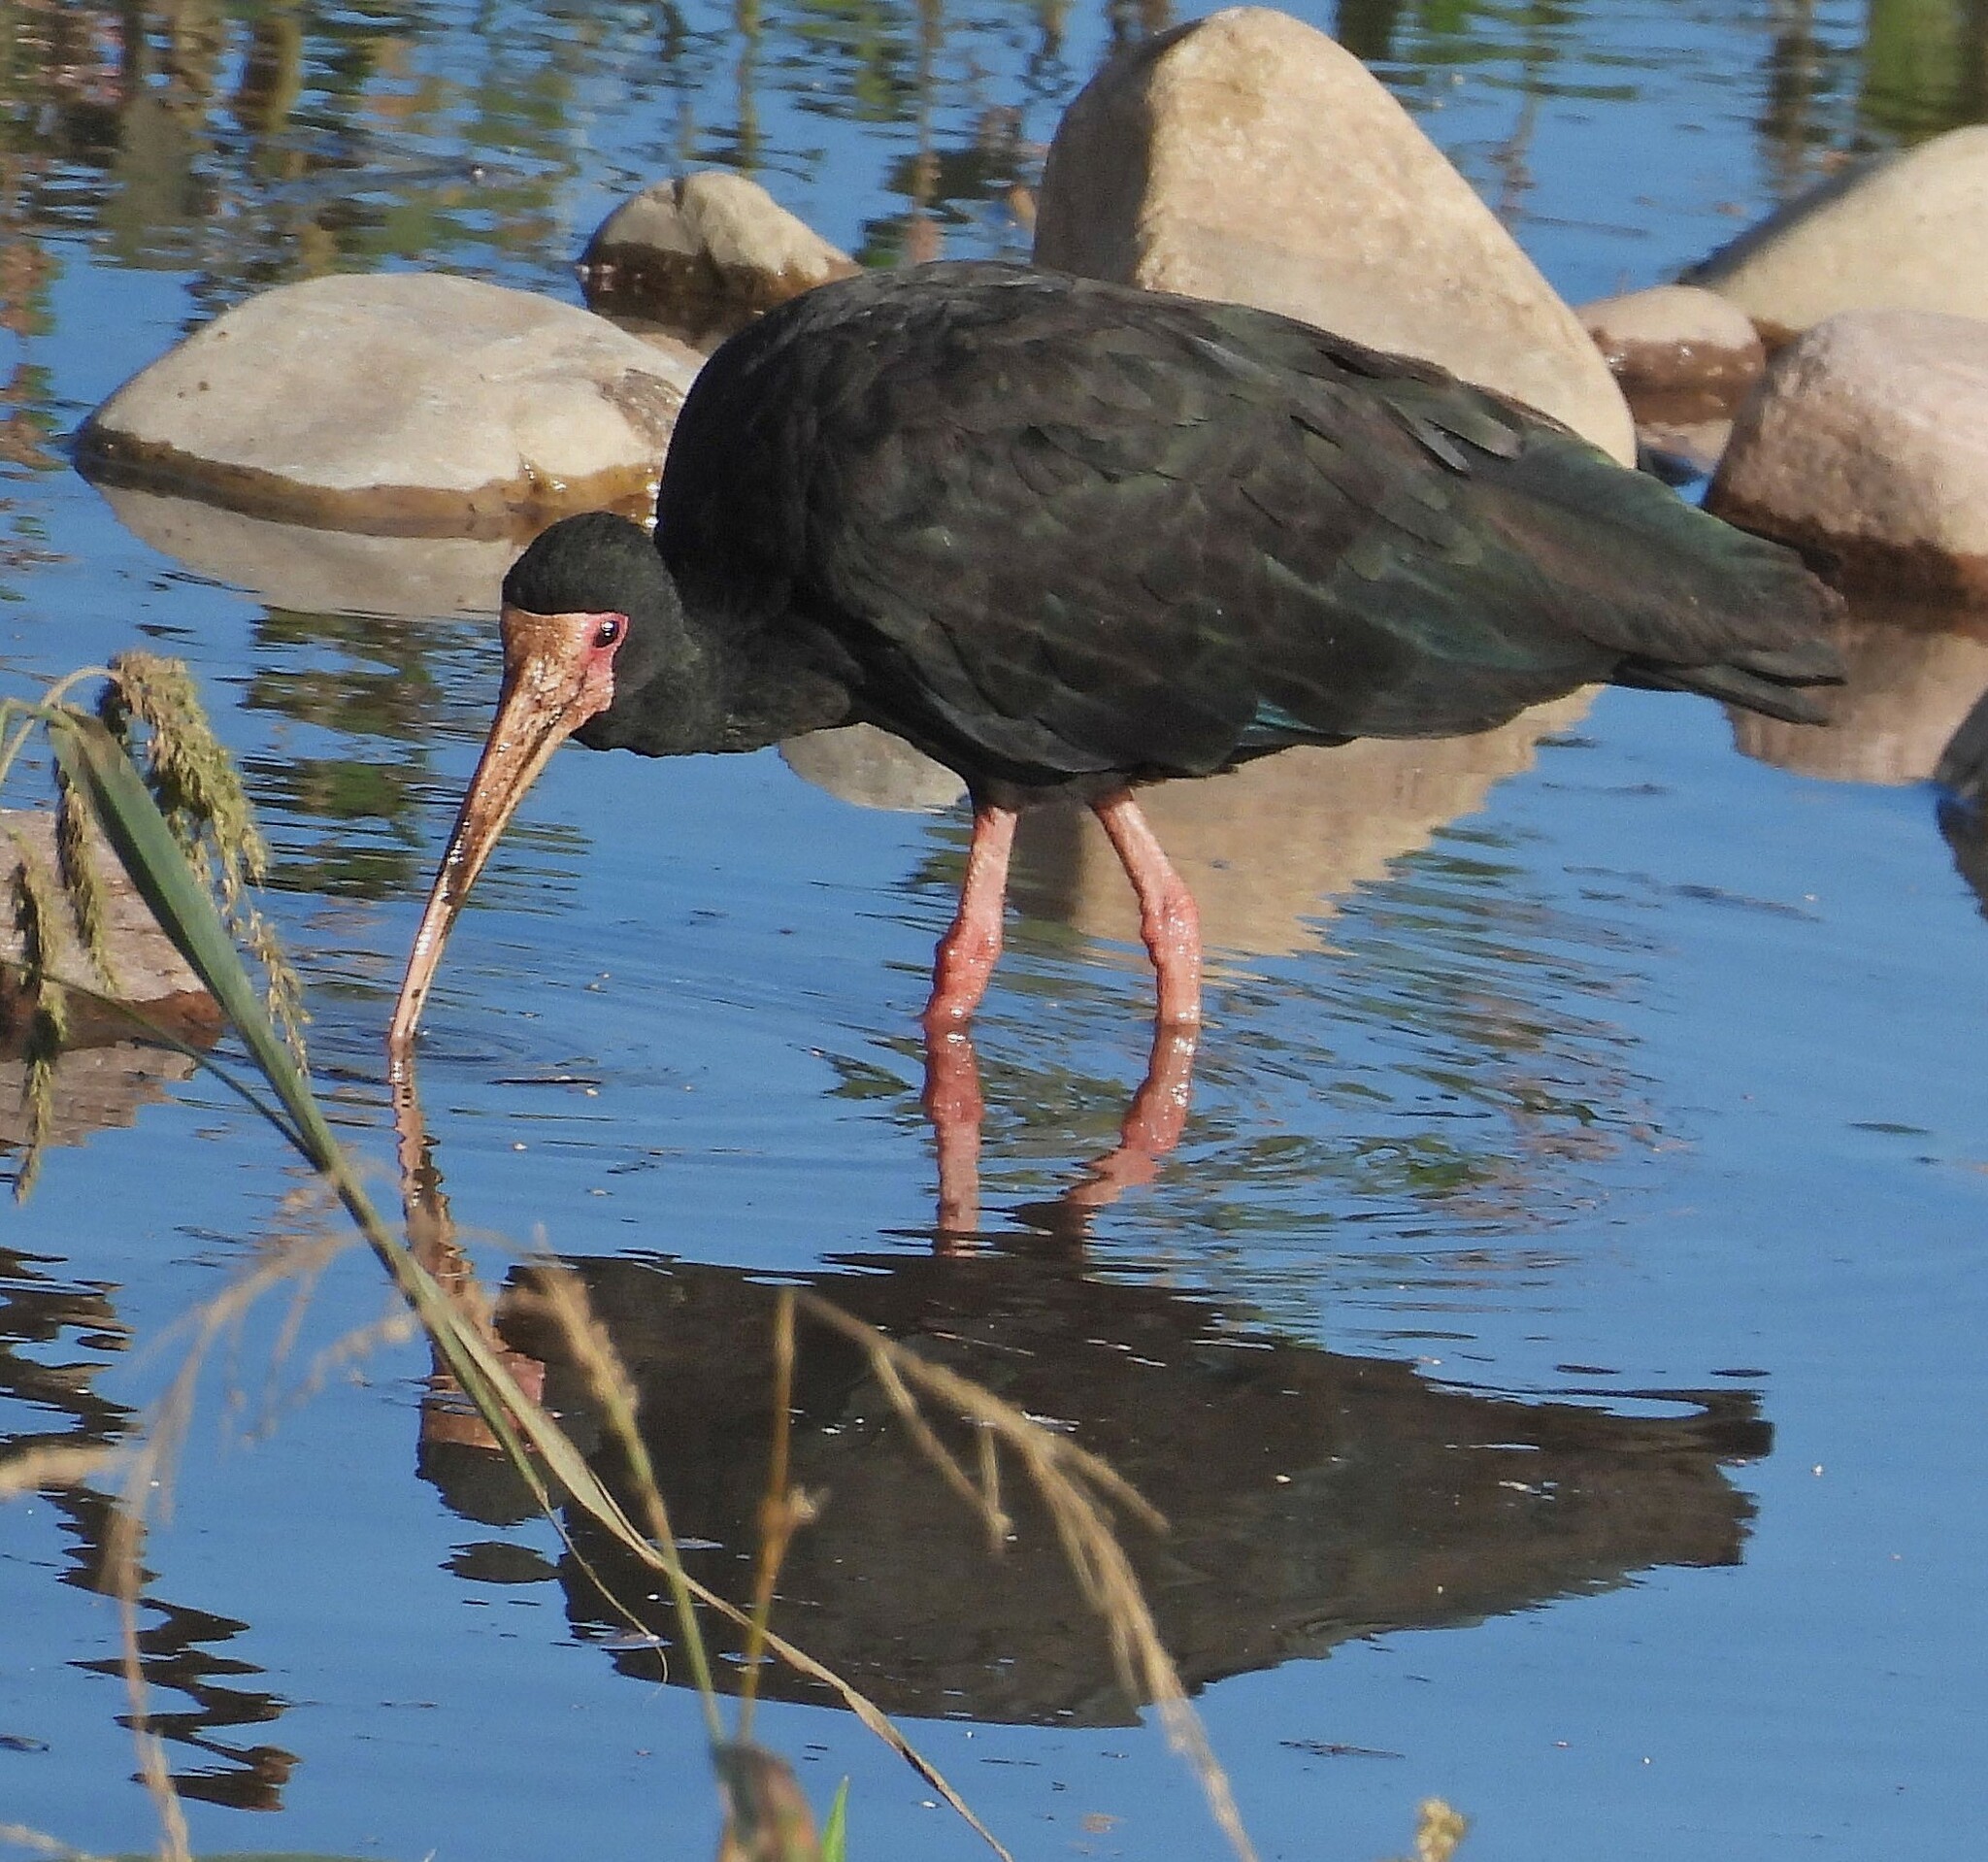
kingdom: Animalia
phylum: Chordata
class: Aves
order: Pelecaniformes
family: Threskiornithidae
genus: Phimosus
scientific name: Phimosus infuscatus
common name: Bare-faced ibis
